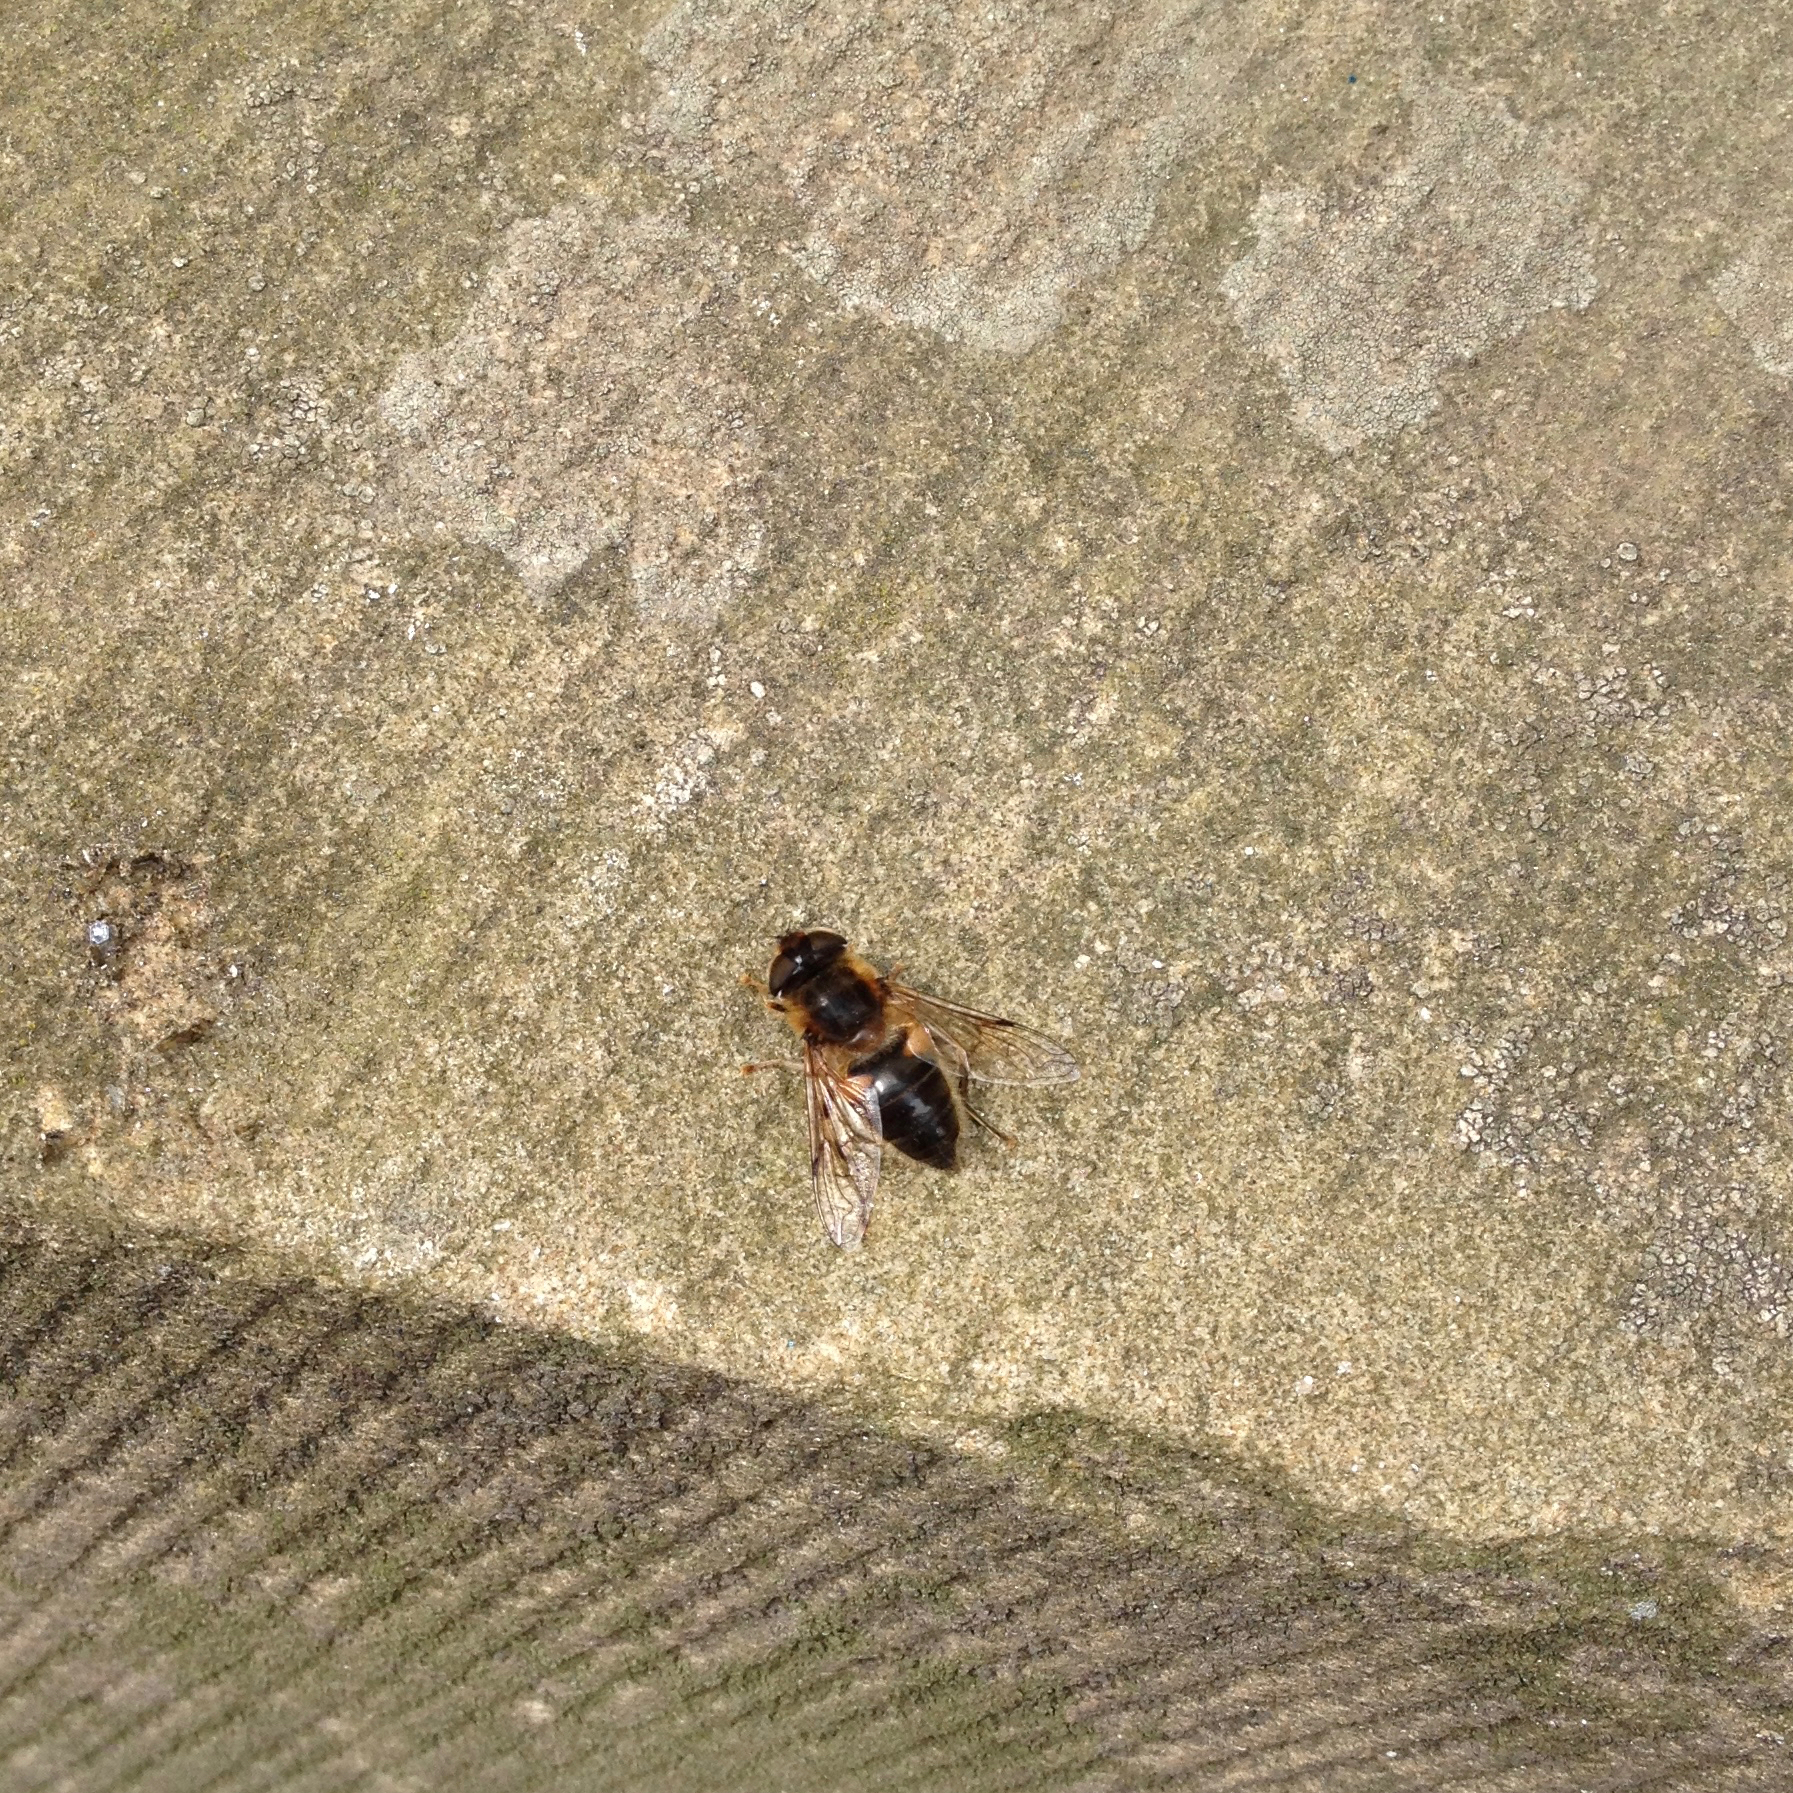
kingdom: Animalia
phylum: Arthropoda
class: Insecta
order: Diptera
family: Syrphidae
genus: Eristalis
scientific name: Eristalis pertinax
